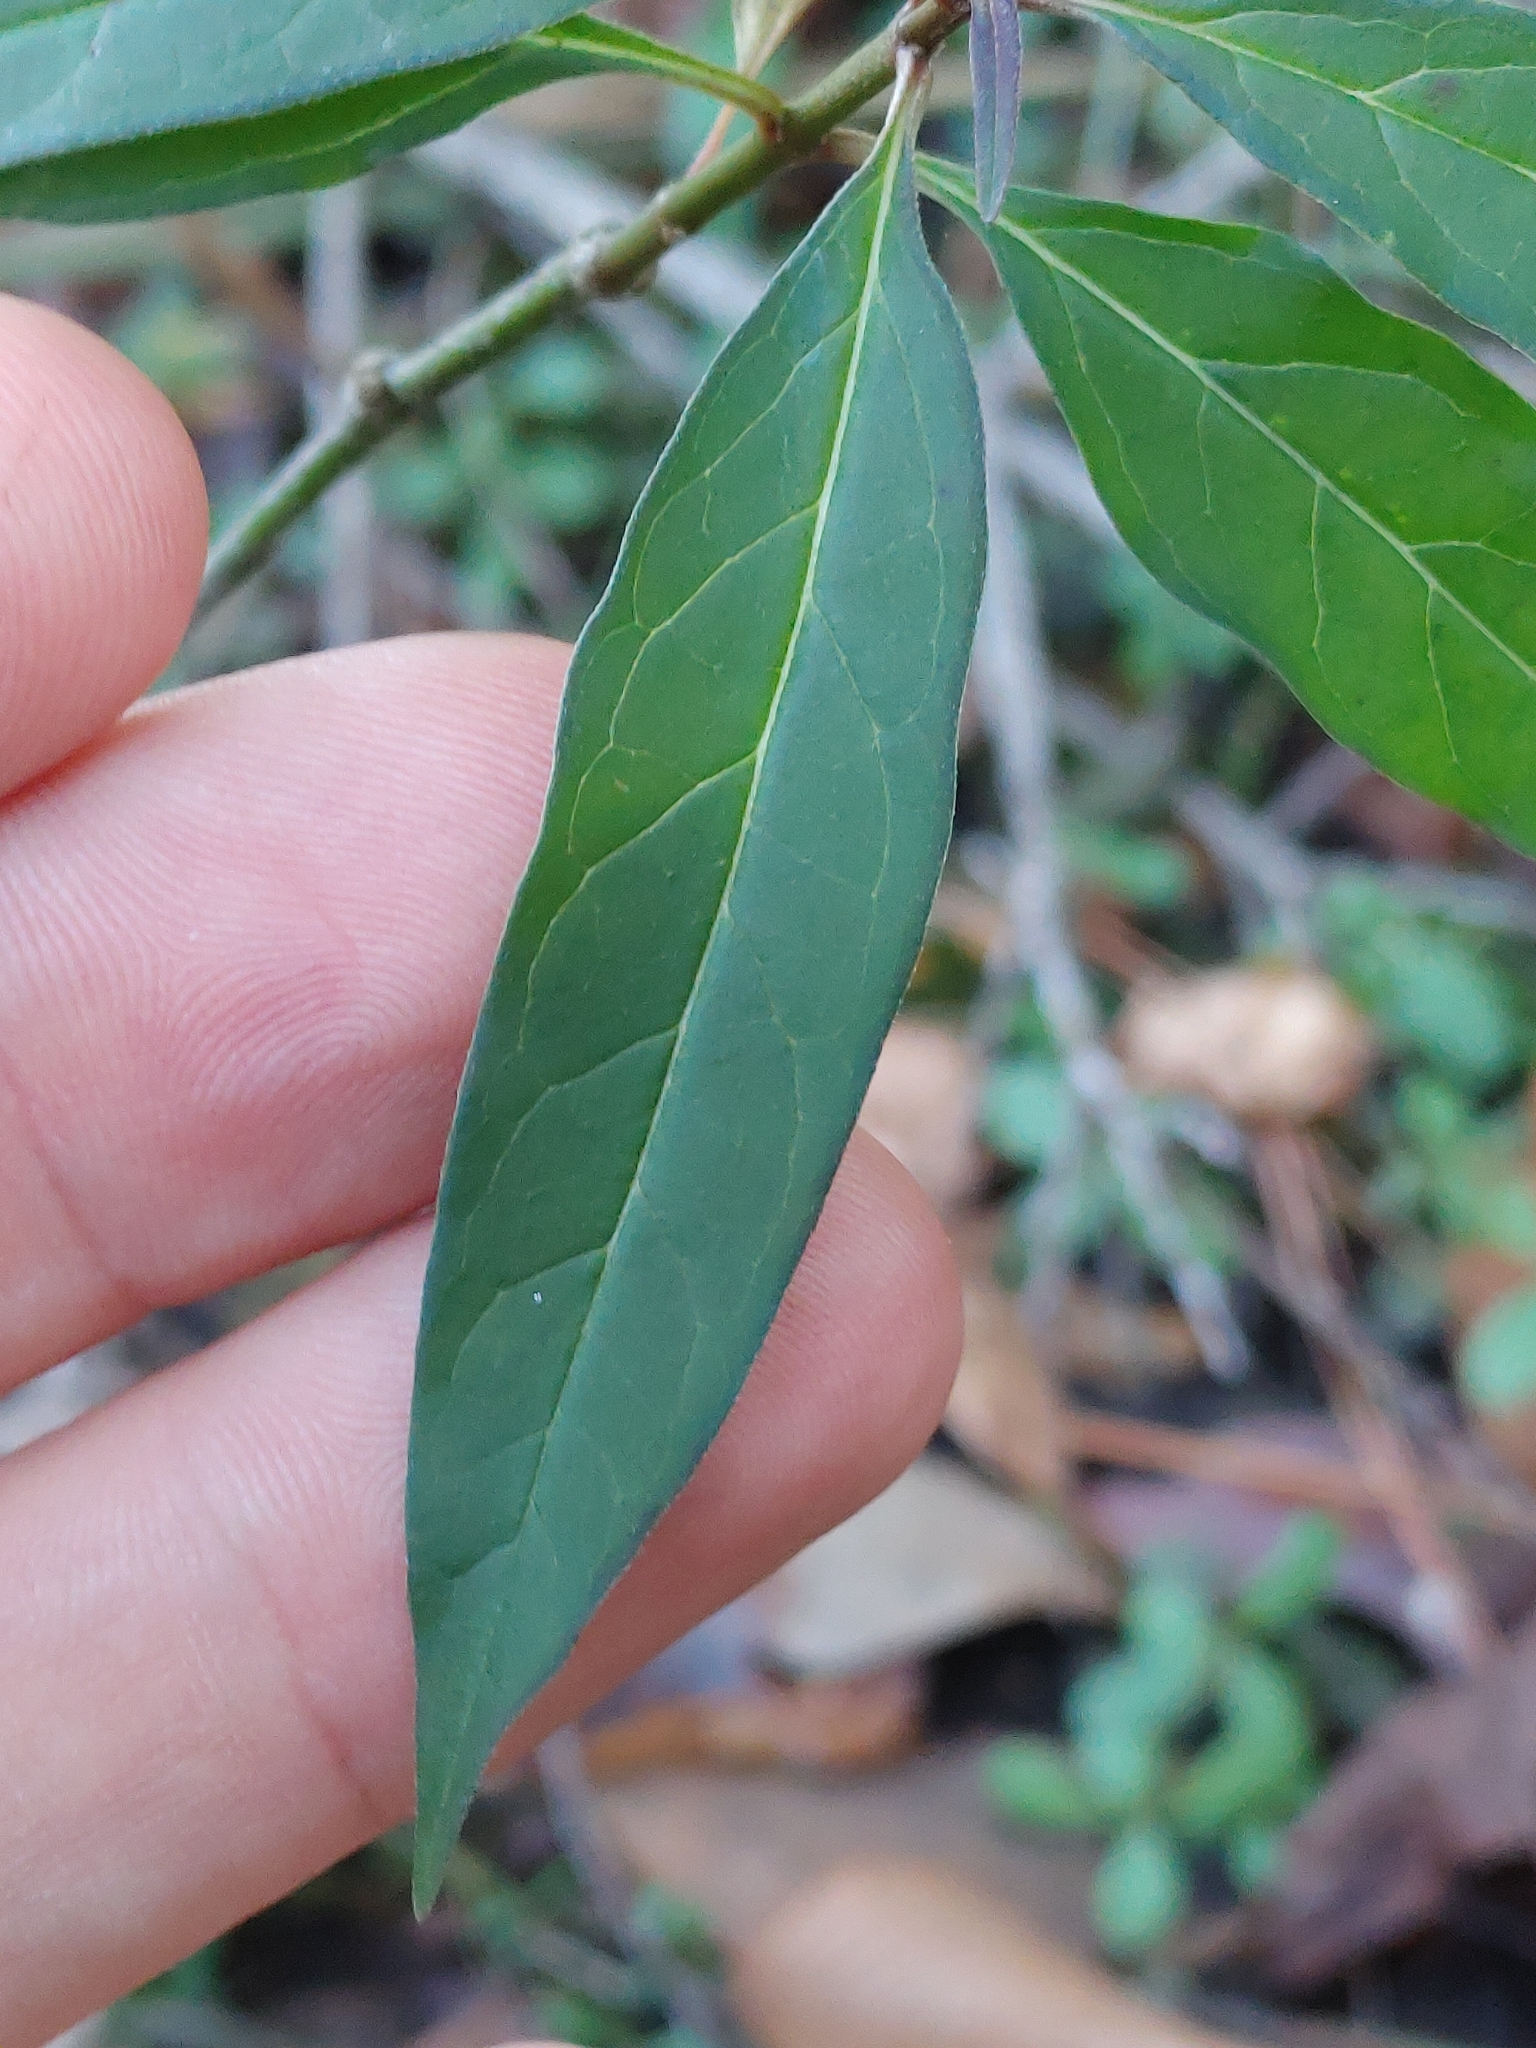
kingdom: Plantae
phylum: Tracheophyta
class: Magnoliopsida
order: Gentianales
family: Apocynaceae
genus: Asclepias
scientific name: Asclepias perennis
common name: Smooth-seed milkweed
